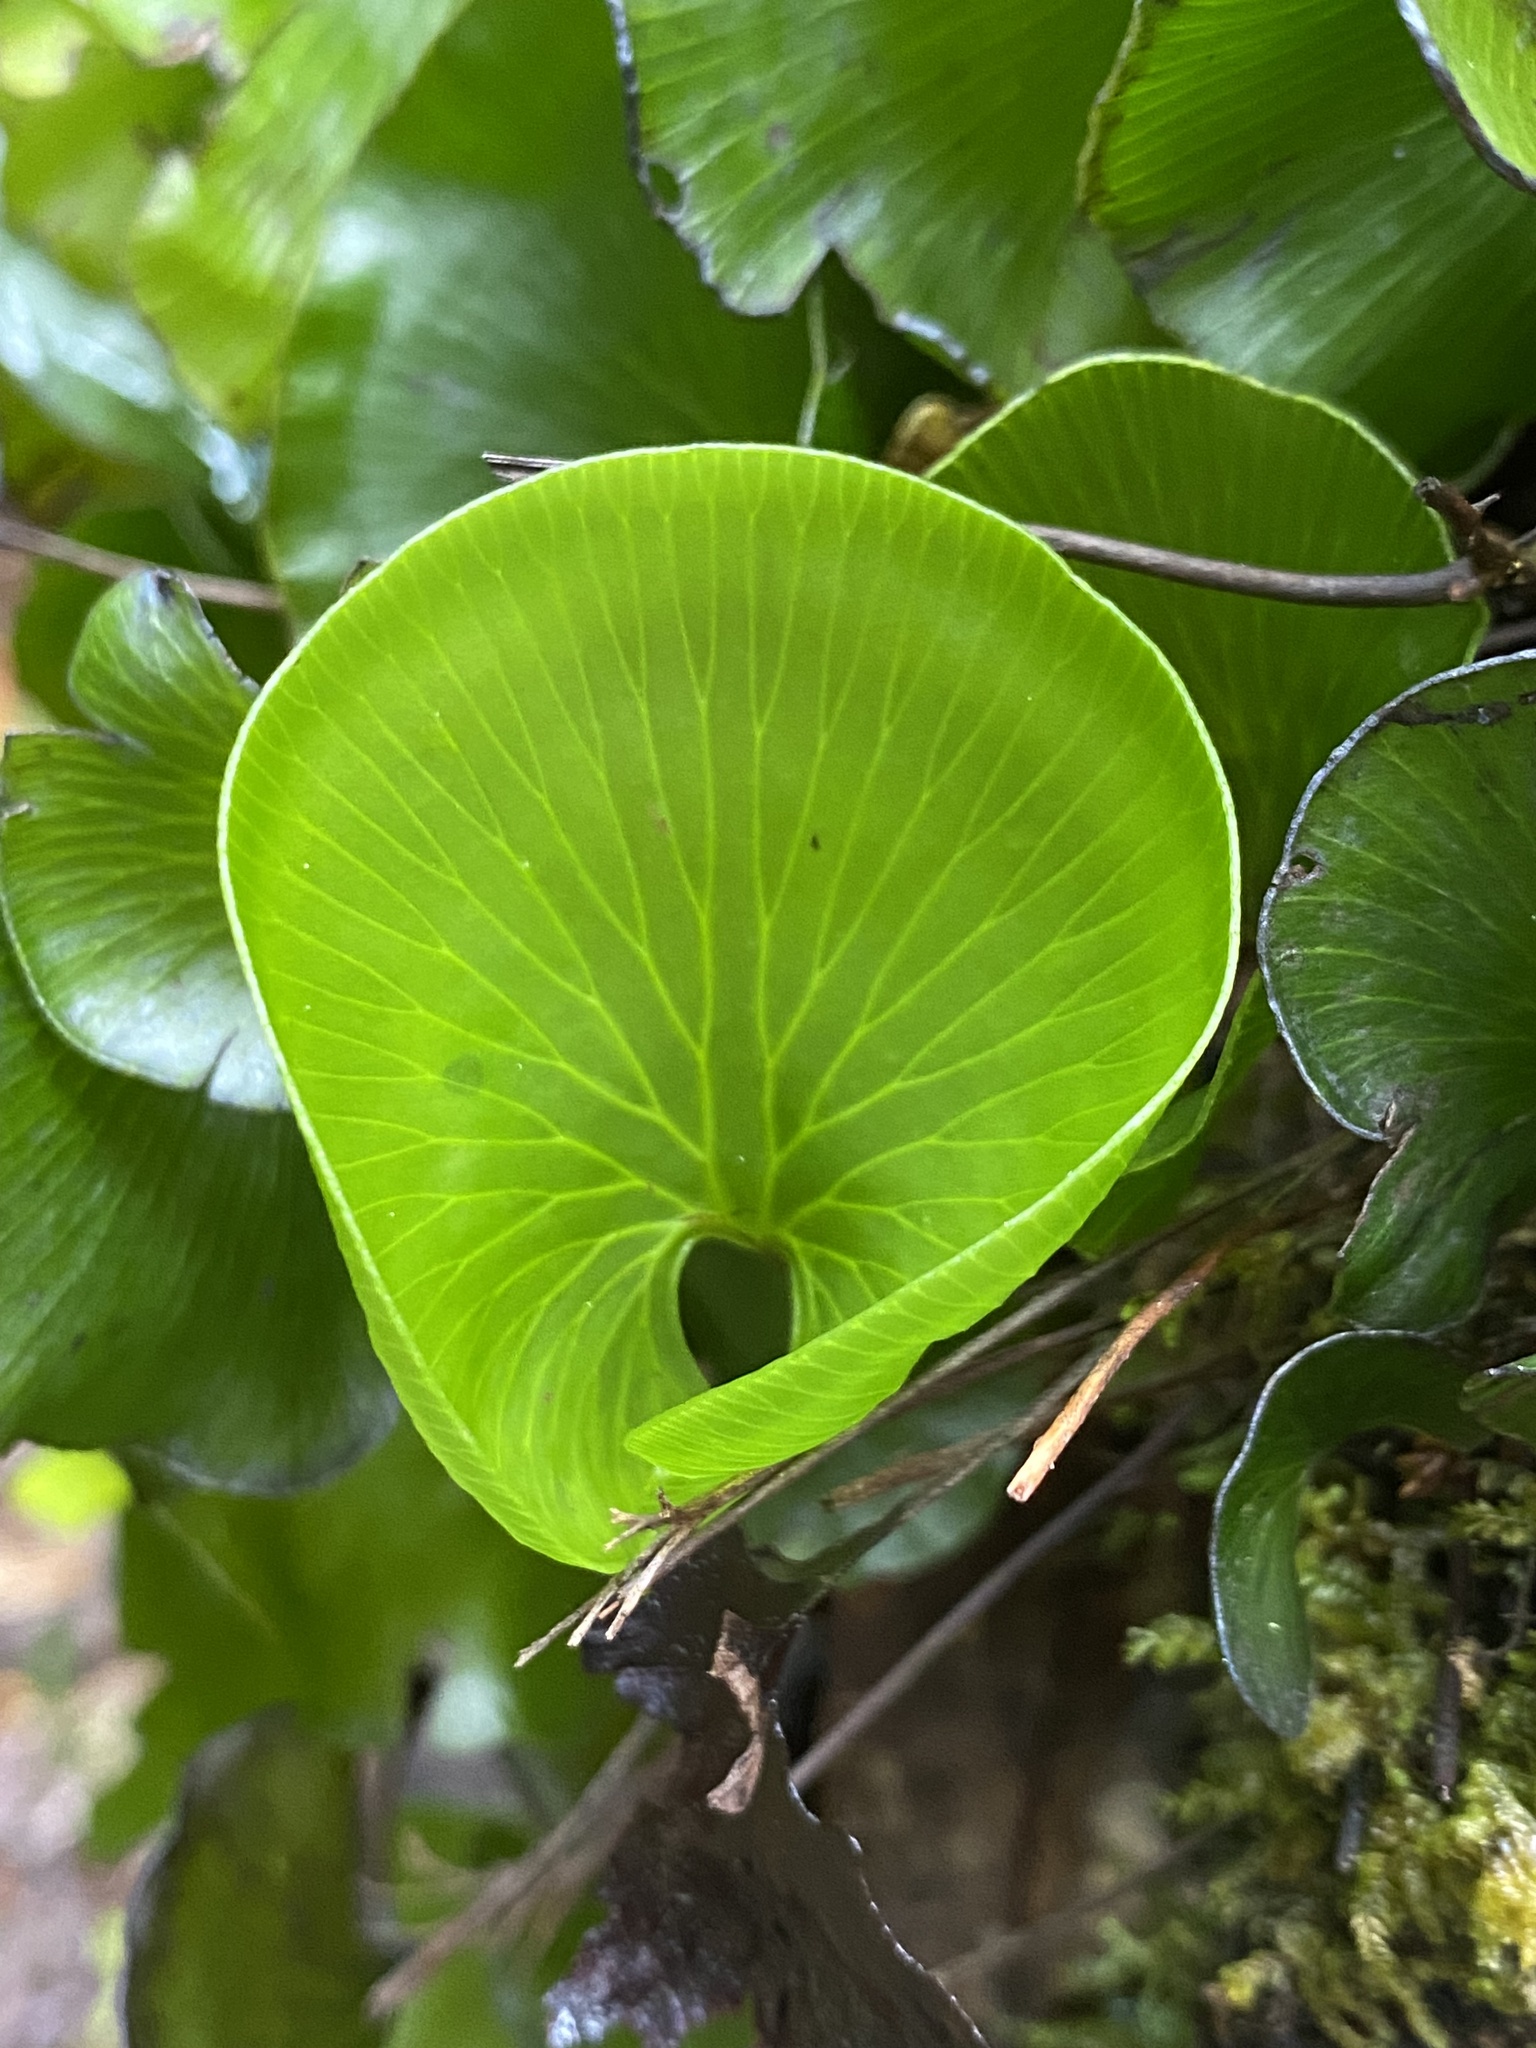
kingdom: Plantae
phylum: Tracheophyta
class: Polypodiopsida
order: Hymenophyllales
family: Hymenophyllaceae
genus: Hymenophyllum
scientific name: Hymenophyllum nephrophyllum
